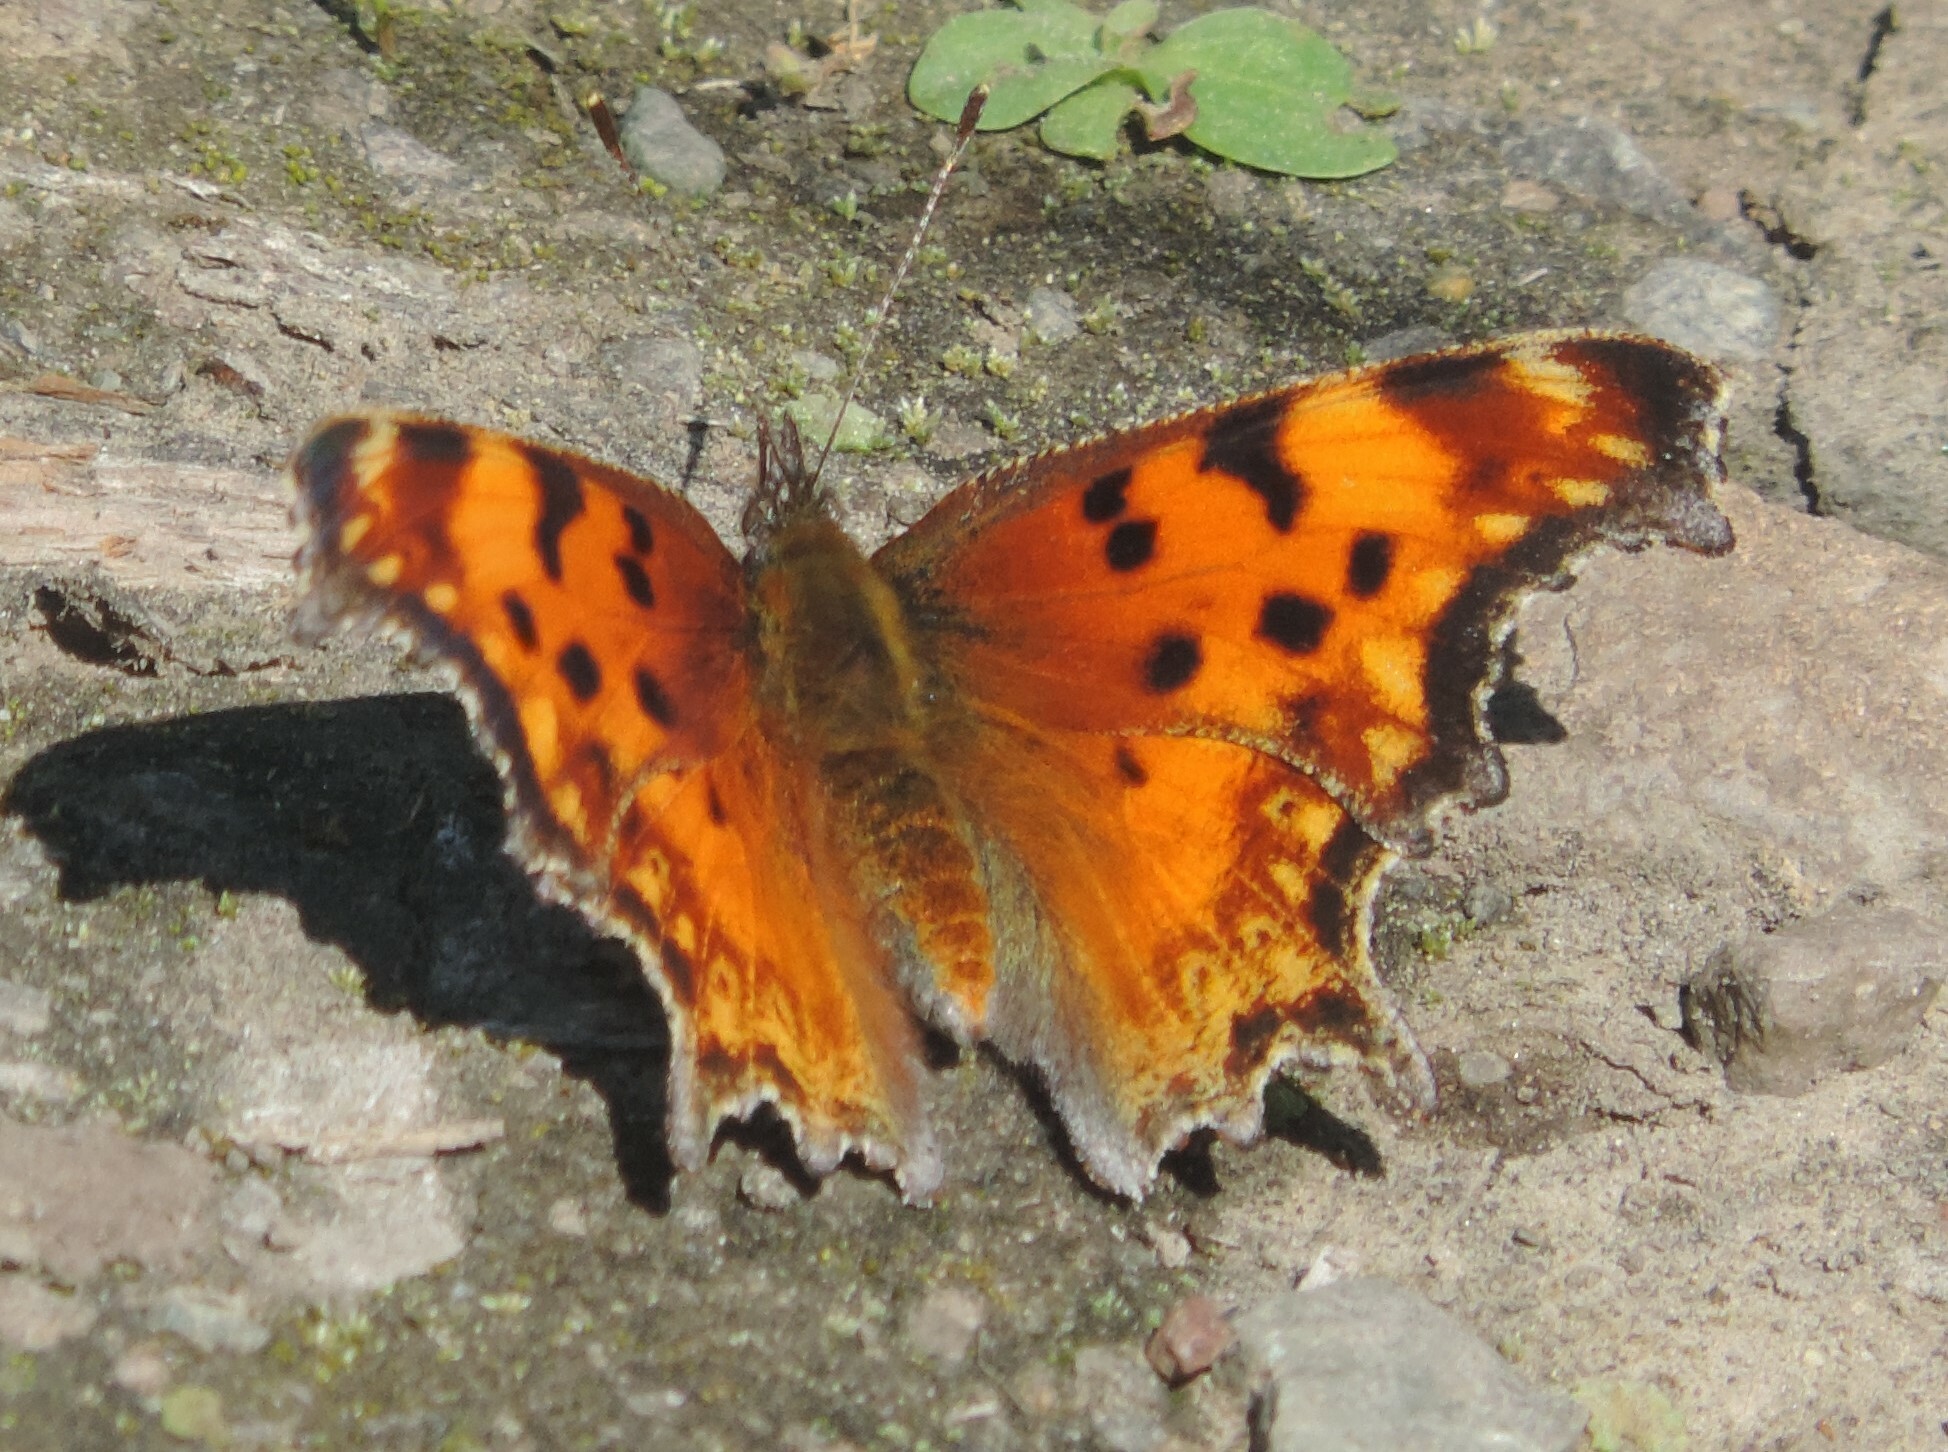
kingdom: Animalia
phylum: Arthropoda
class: Insecta
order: Lepidoptera
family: Nymphalidae
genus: Polygonia
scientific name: Polygonia gracilis
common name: Hoary comma
